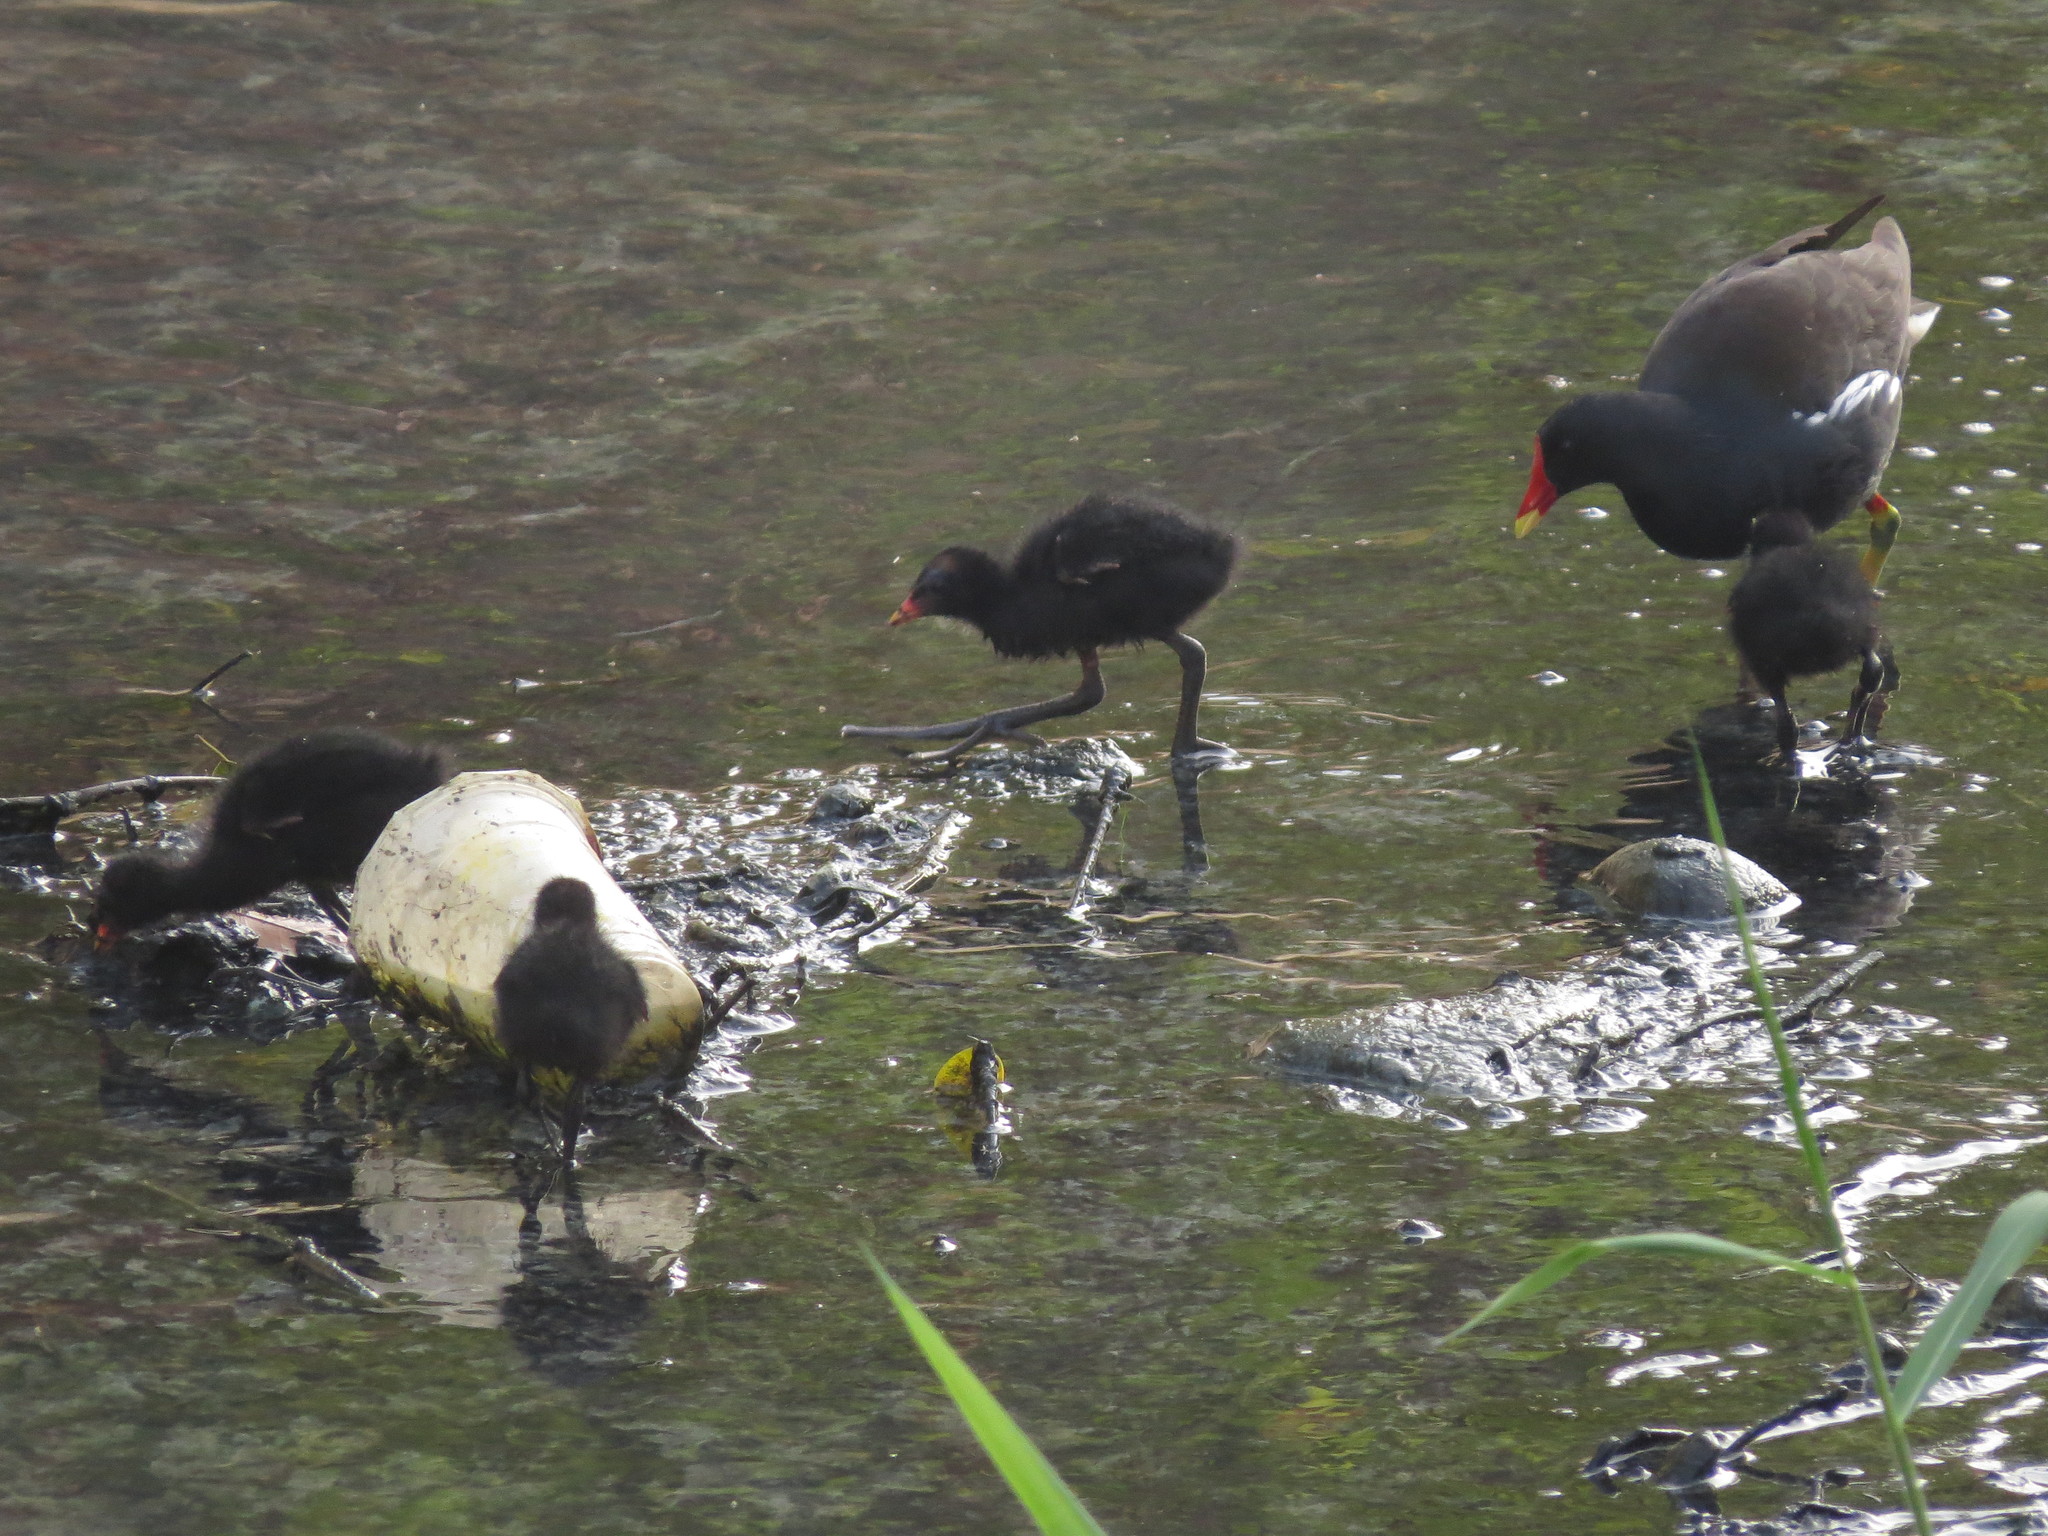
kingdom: Animalia
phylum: Chordata
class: Aves
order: Gruiformes
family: Rallidae
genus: Gallinula
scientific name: Gallinula chloropus
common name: Common moorhen
